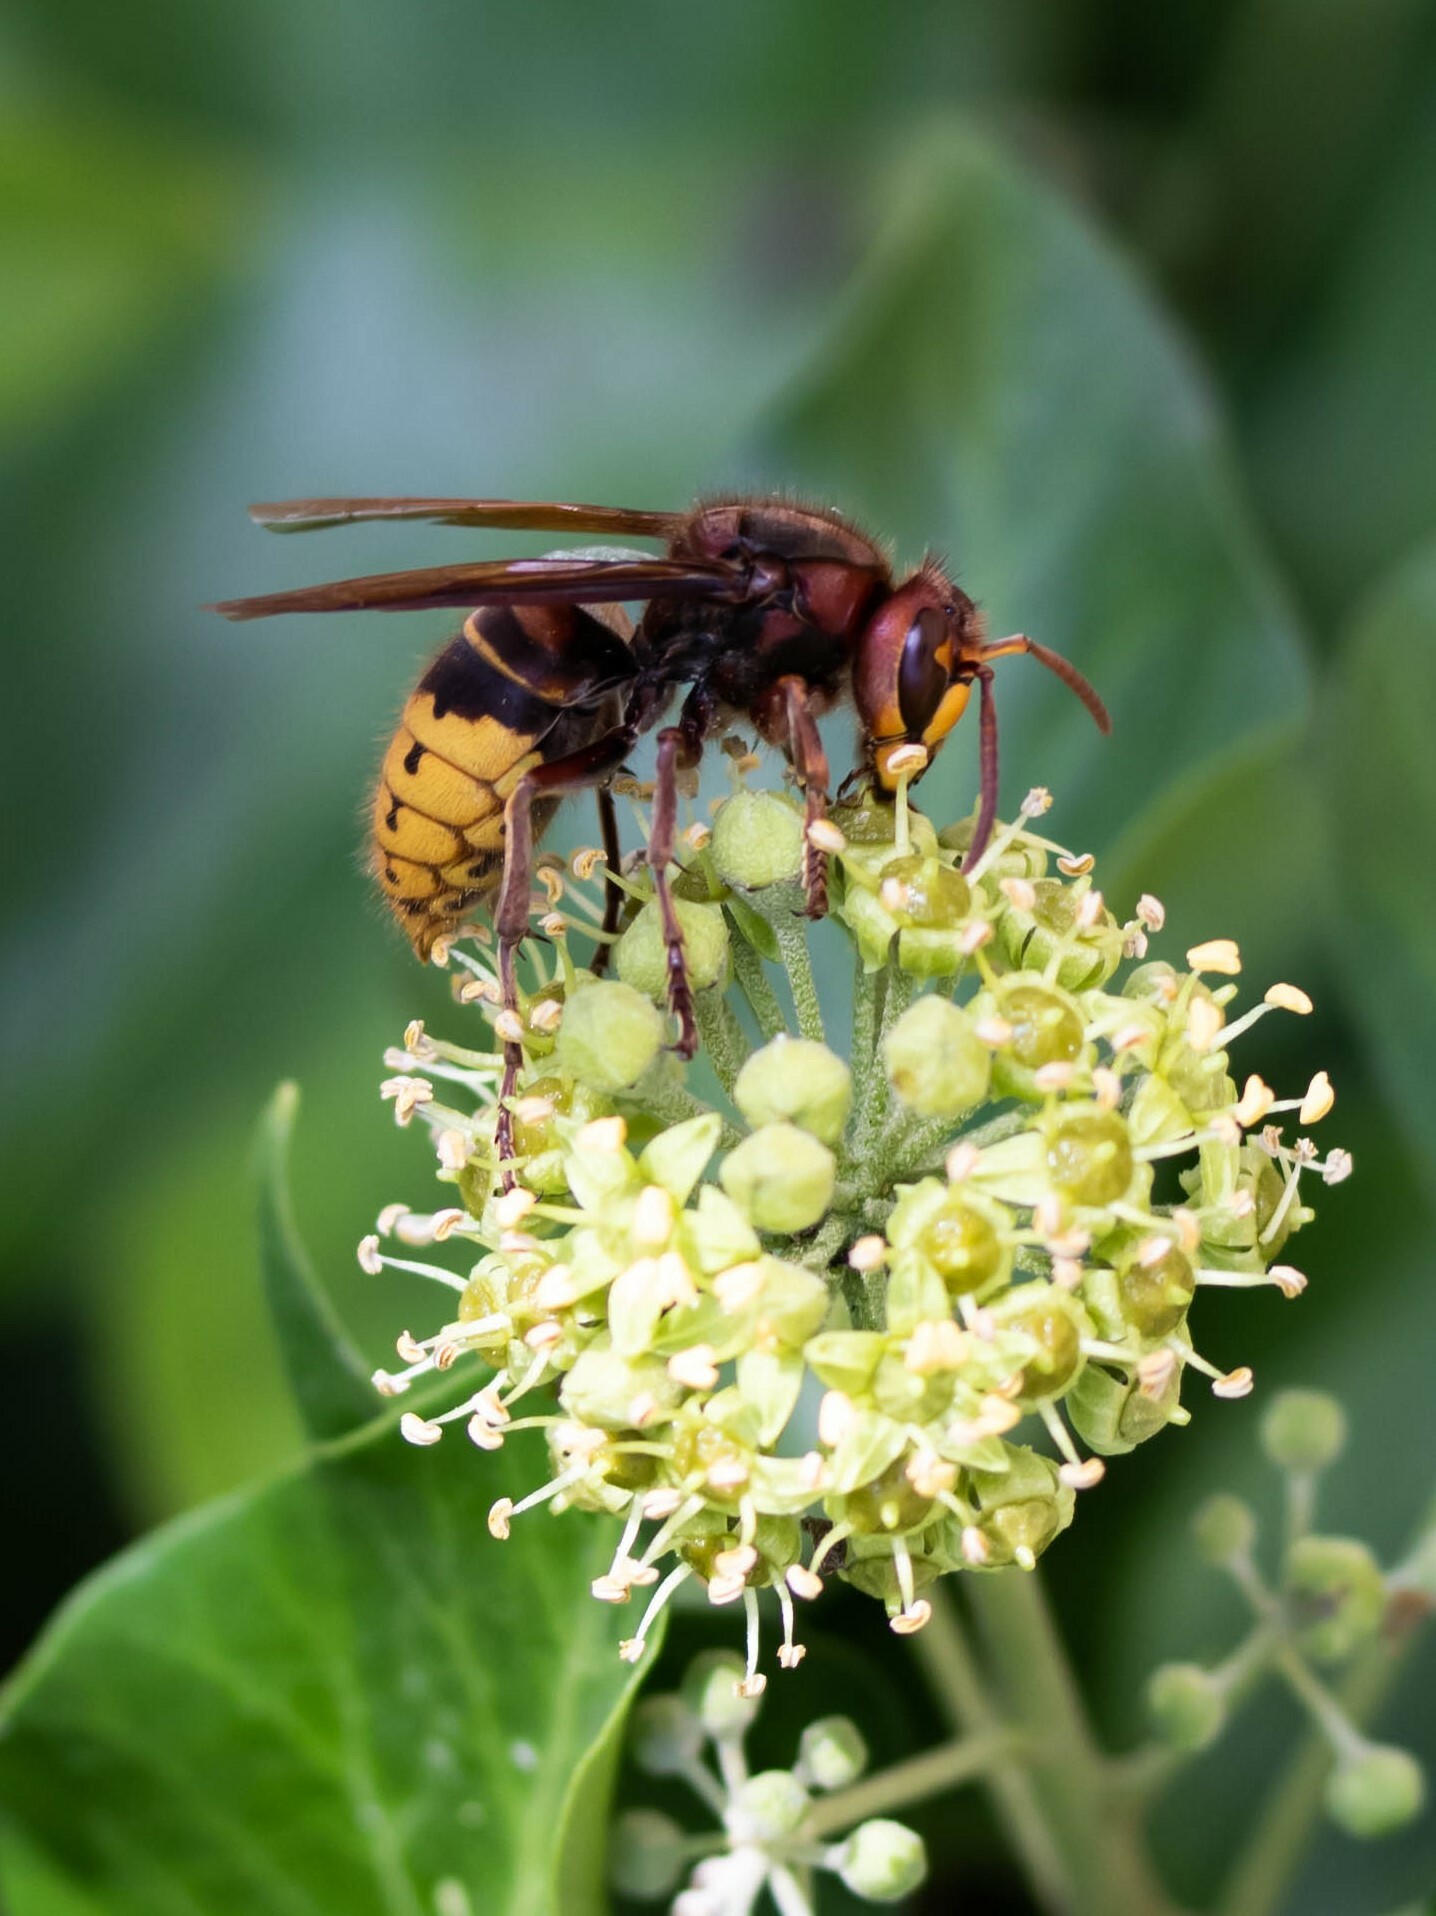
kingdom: Animalia
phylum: Arthropoda
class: Insecta
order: Hymenoptera
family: Vespidae
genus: Vespa
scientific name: Vespa crabro
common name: Hornet
